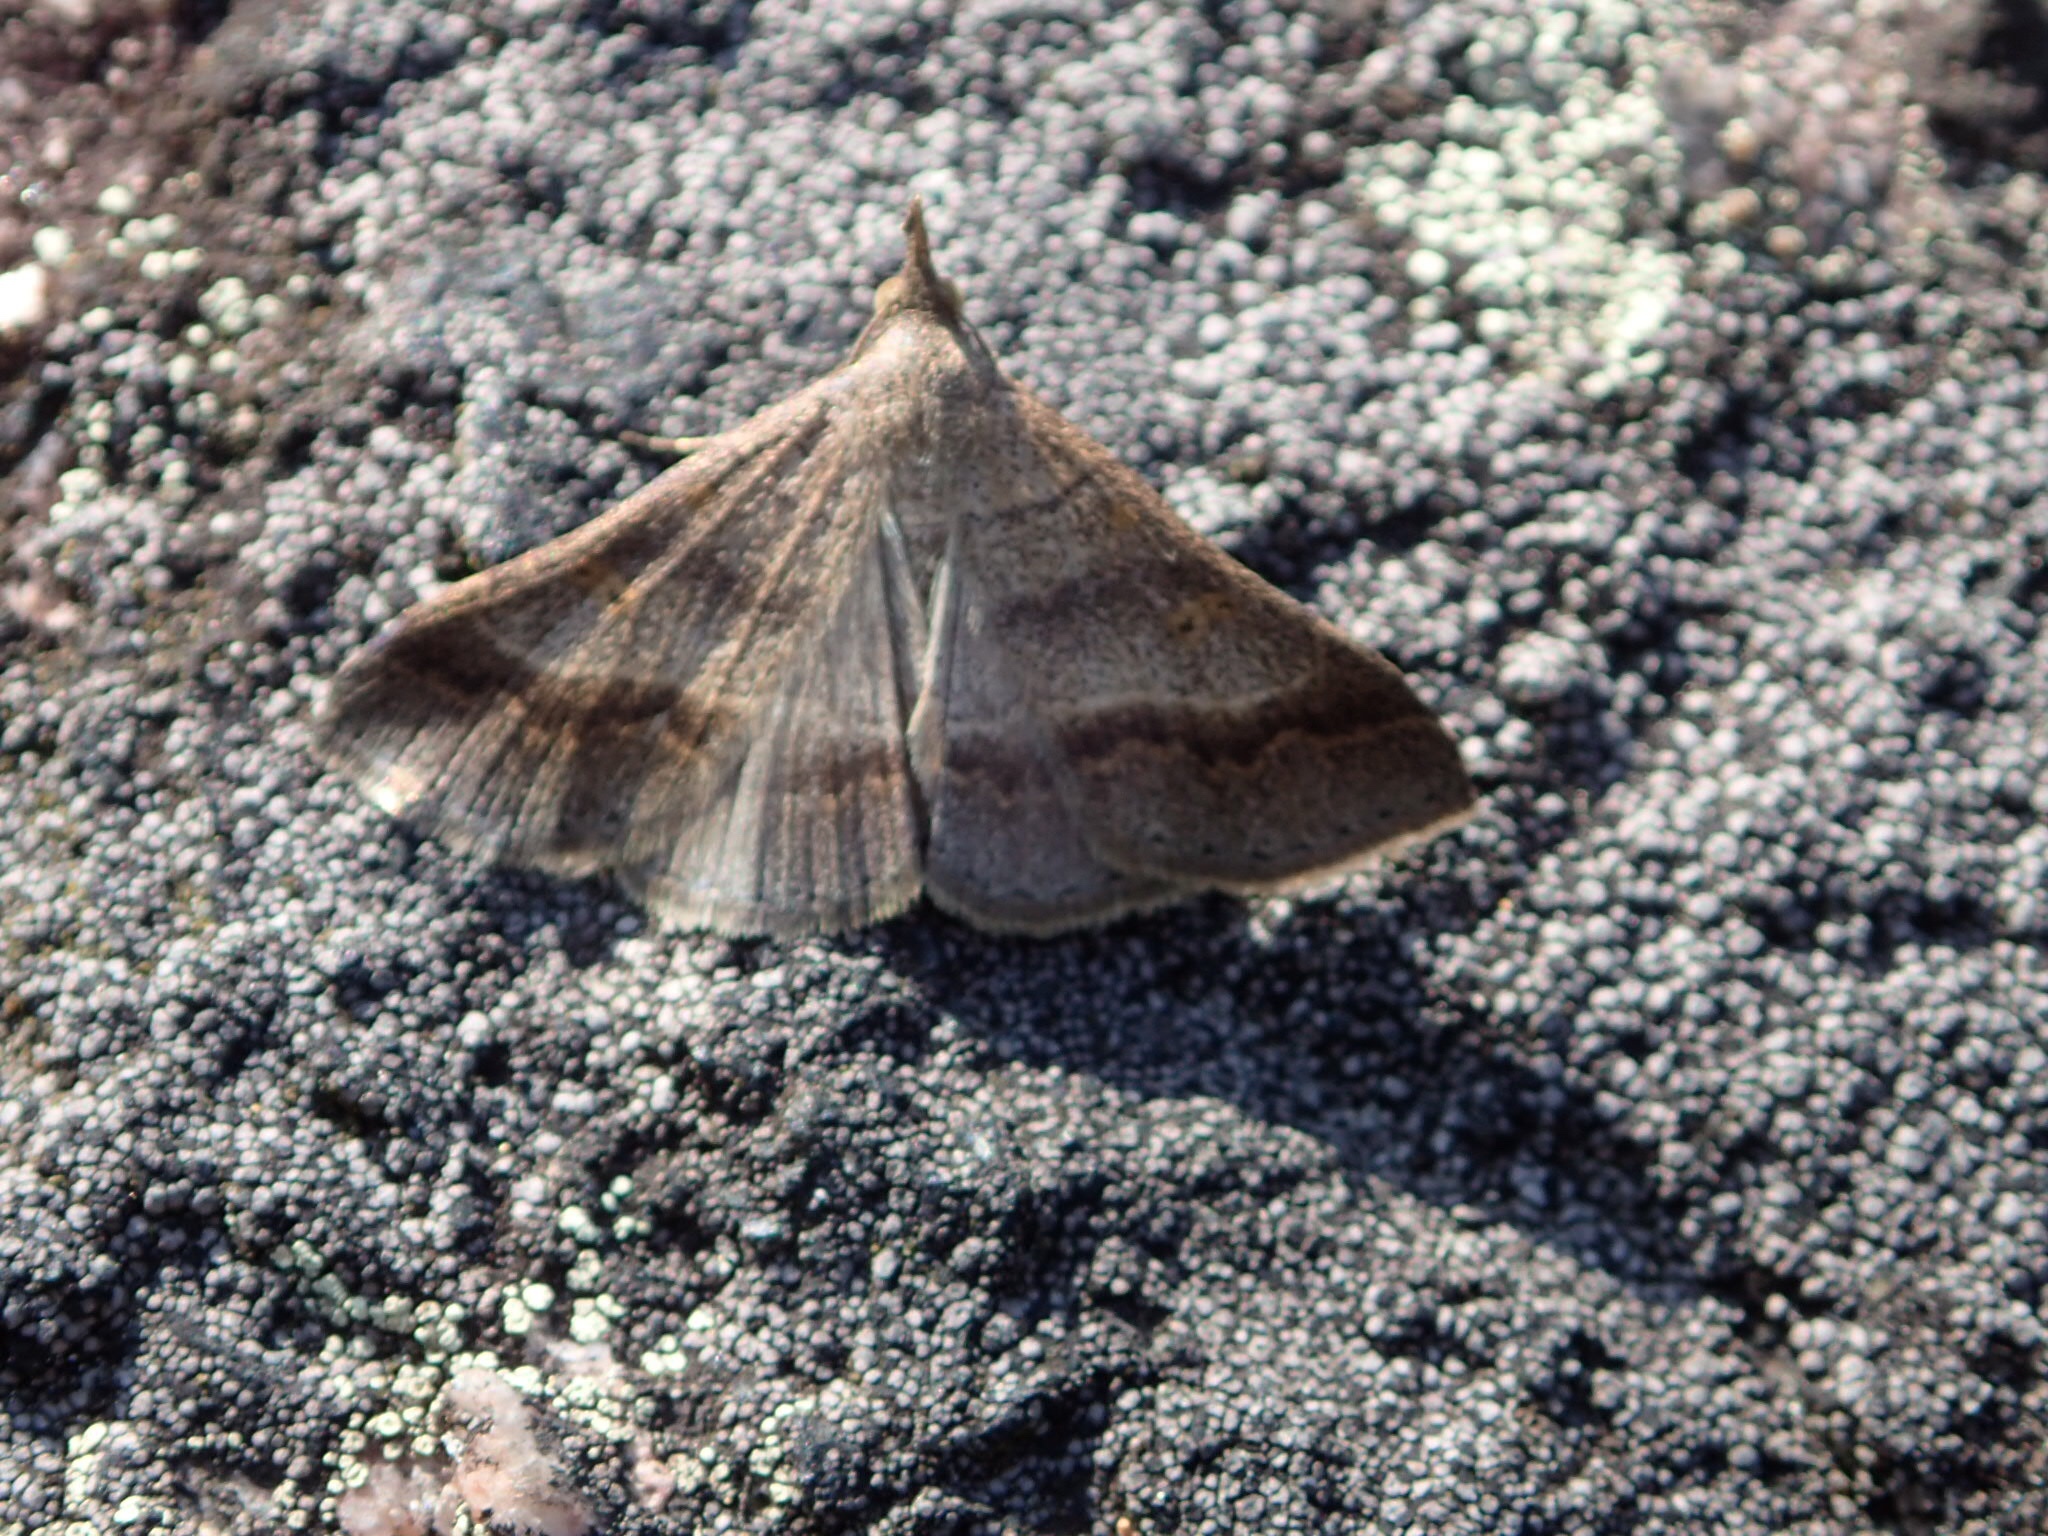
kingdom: Animalia
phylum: Arthropoda
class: Insecta
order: Lepidoptera
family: Erebidae
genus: Renia
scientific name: Renia flavipunctalis
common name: Yellow-spotted renia moth
